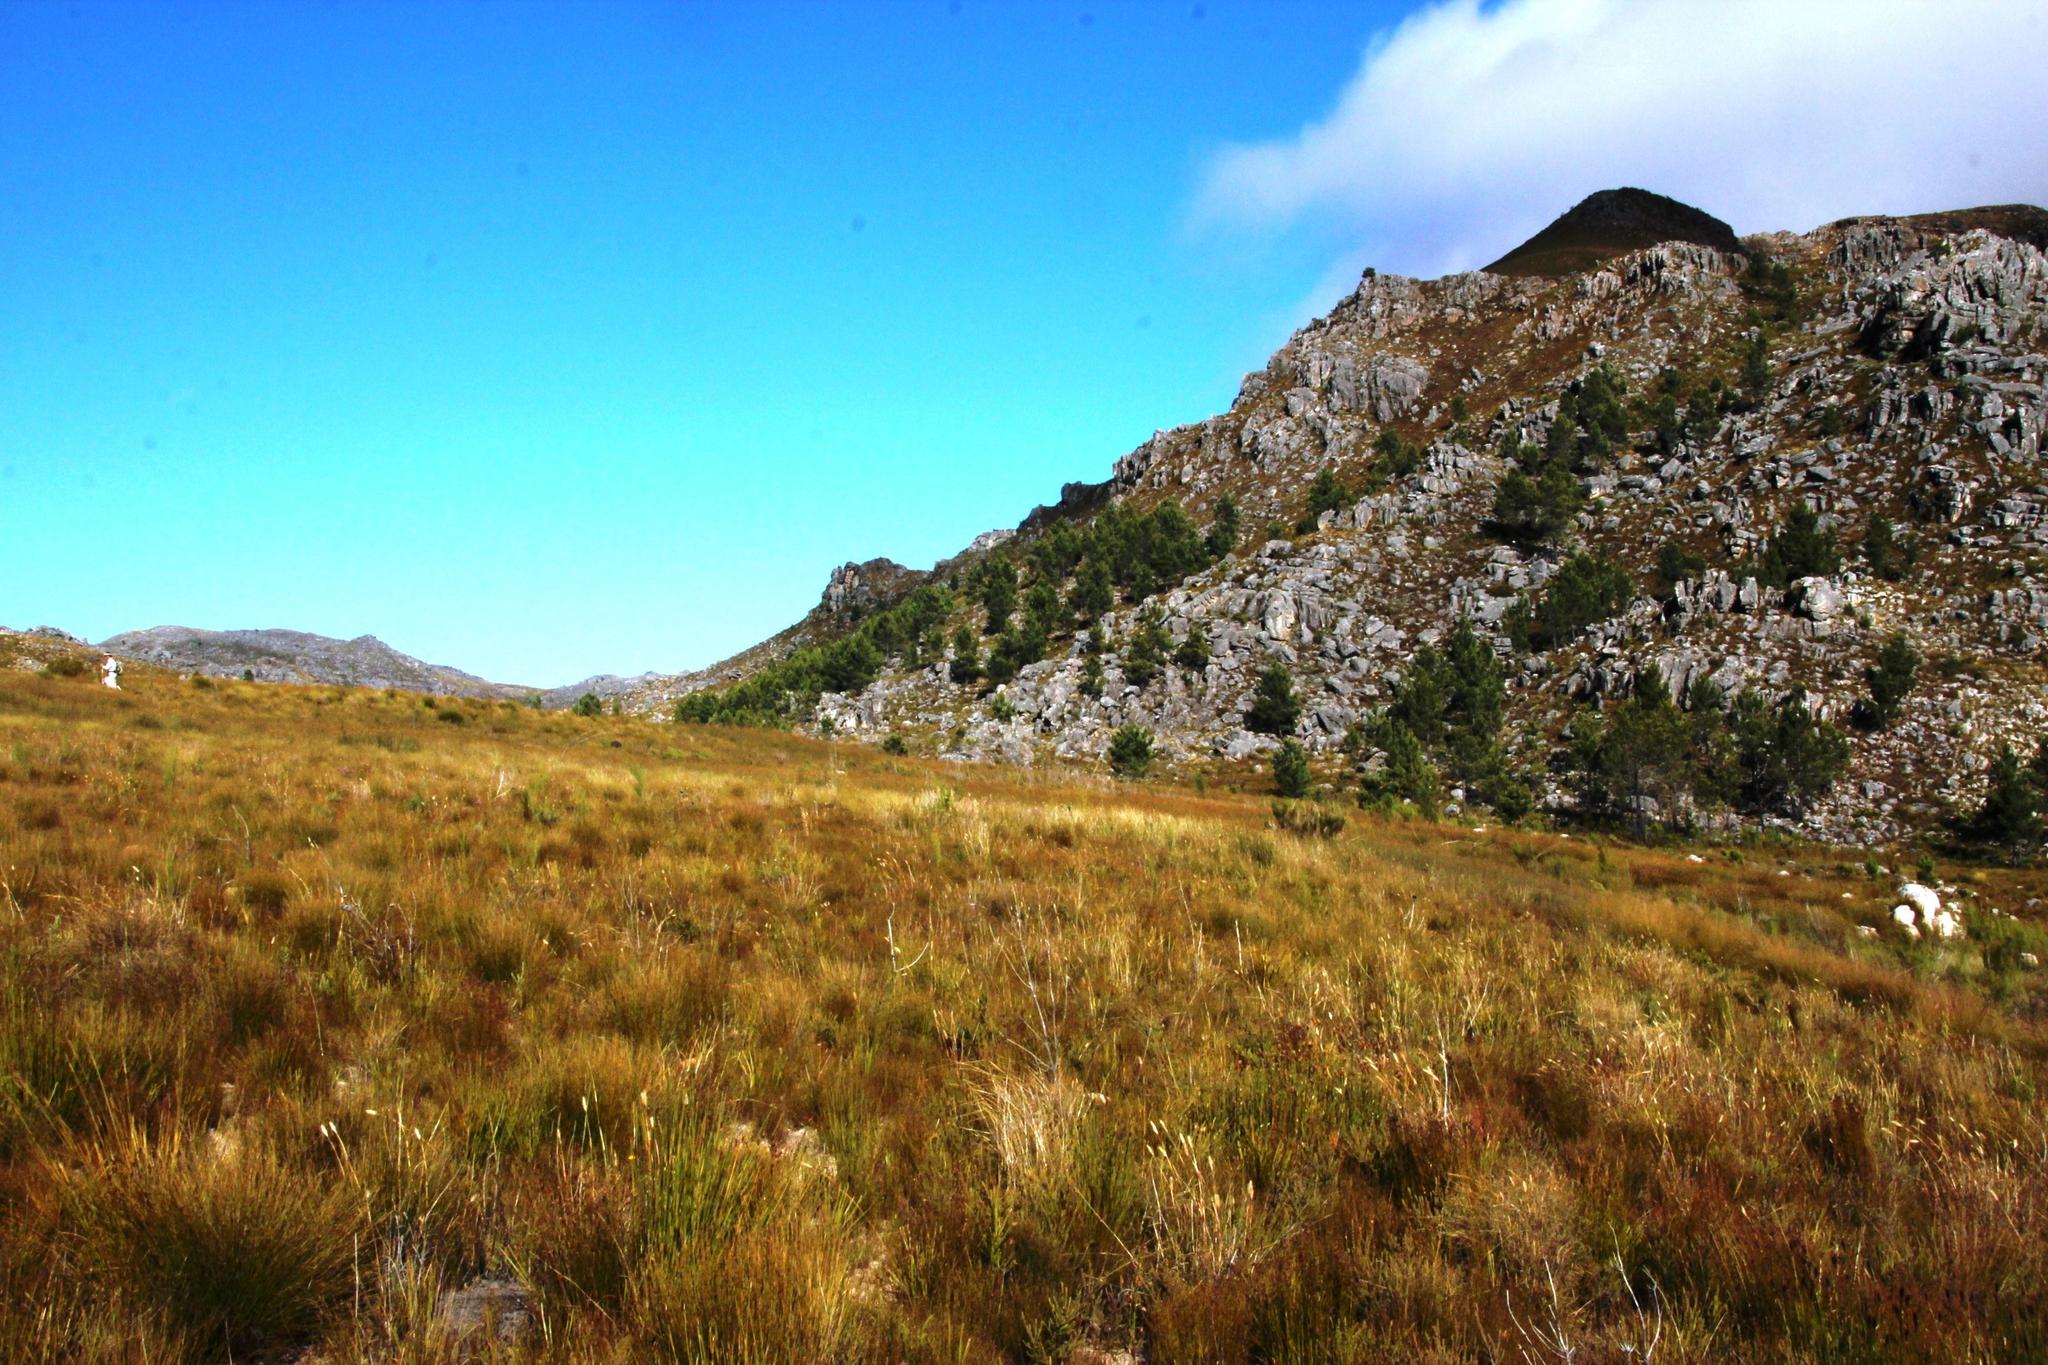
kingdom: Plantae
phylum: Tracheophyta
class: Pinopsida
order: Pinales
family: Pinaceae
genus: Pinus
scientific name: Pinus pinaster
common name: Maritime pine
